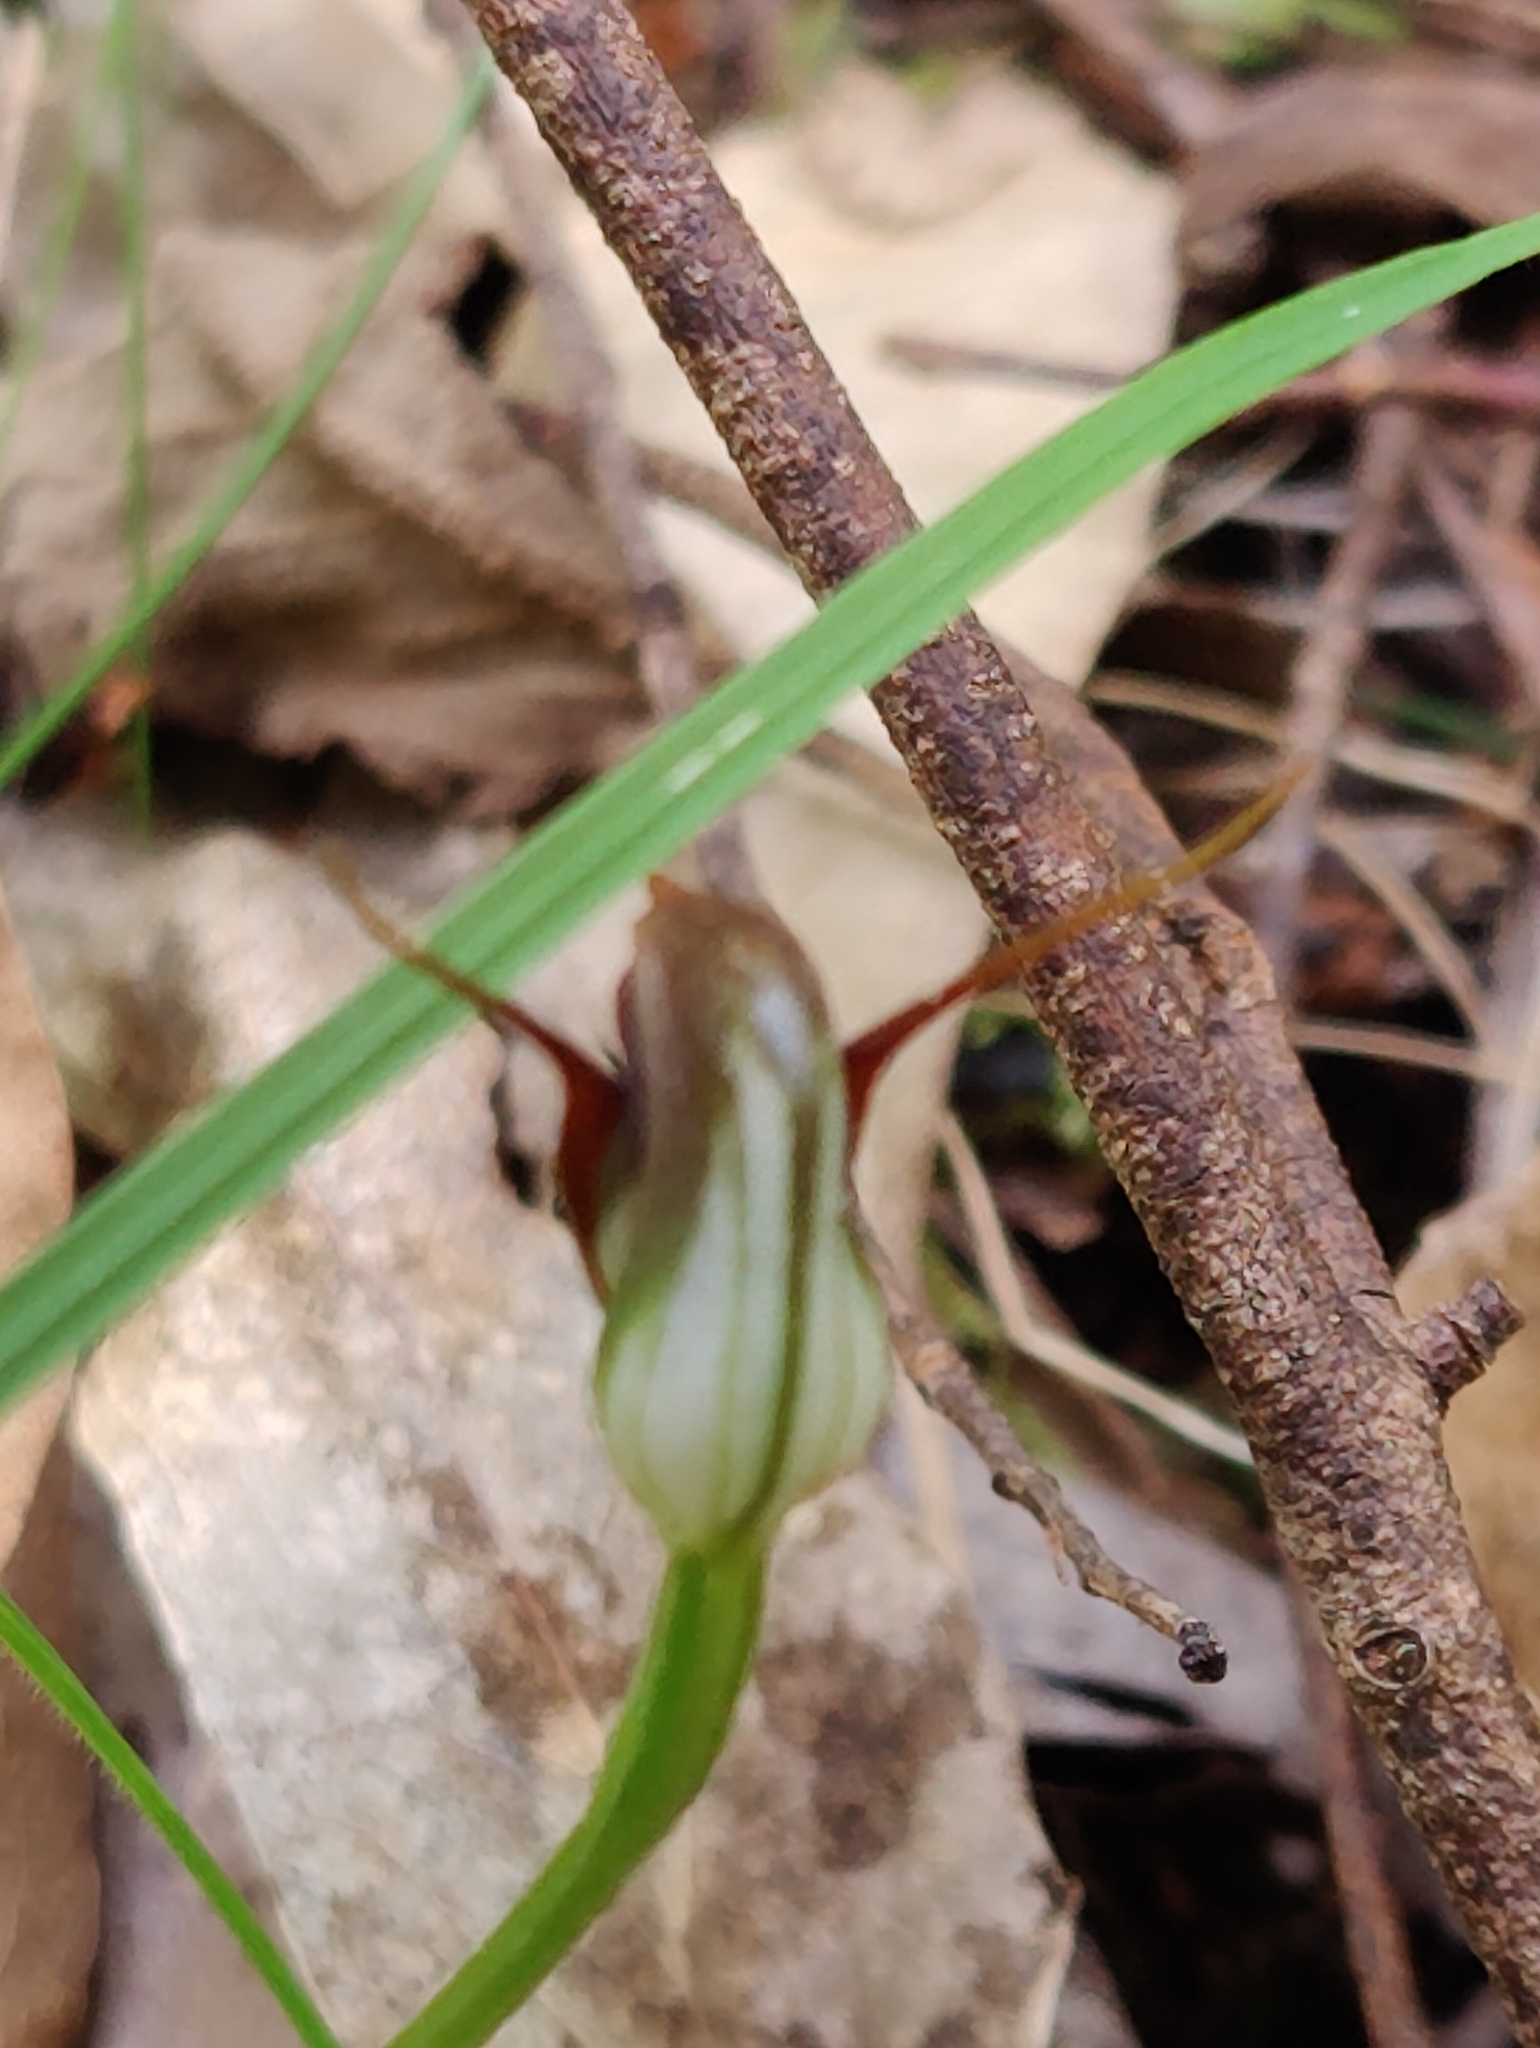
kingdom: Plantae
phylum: Tracheophyta
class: Liliopsida
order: Asparagales
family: Orchidaceae
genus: Pterostylis
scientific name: Pterostylis pedunculata
